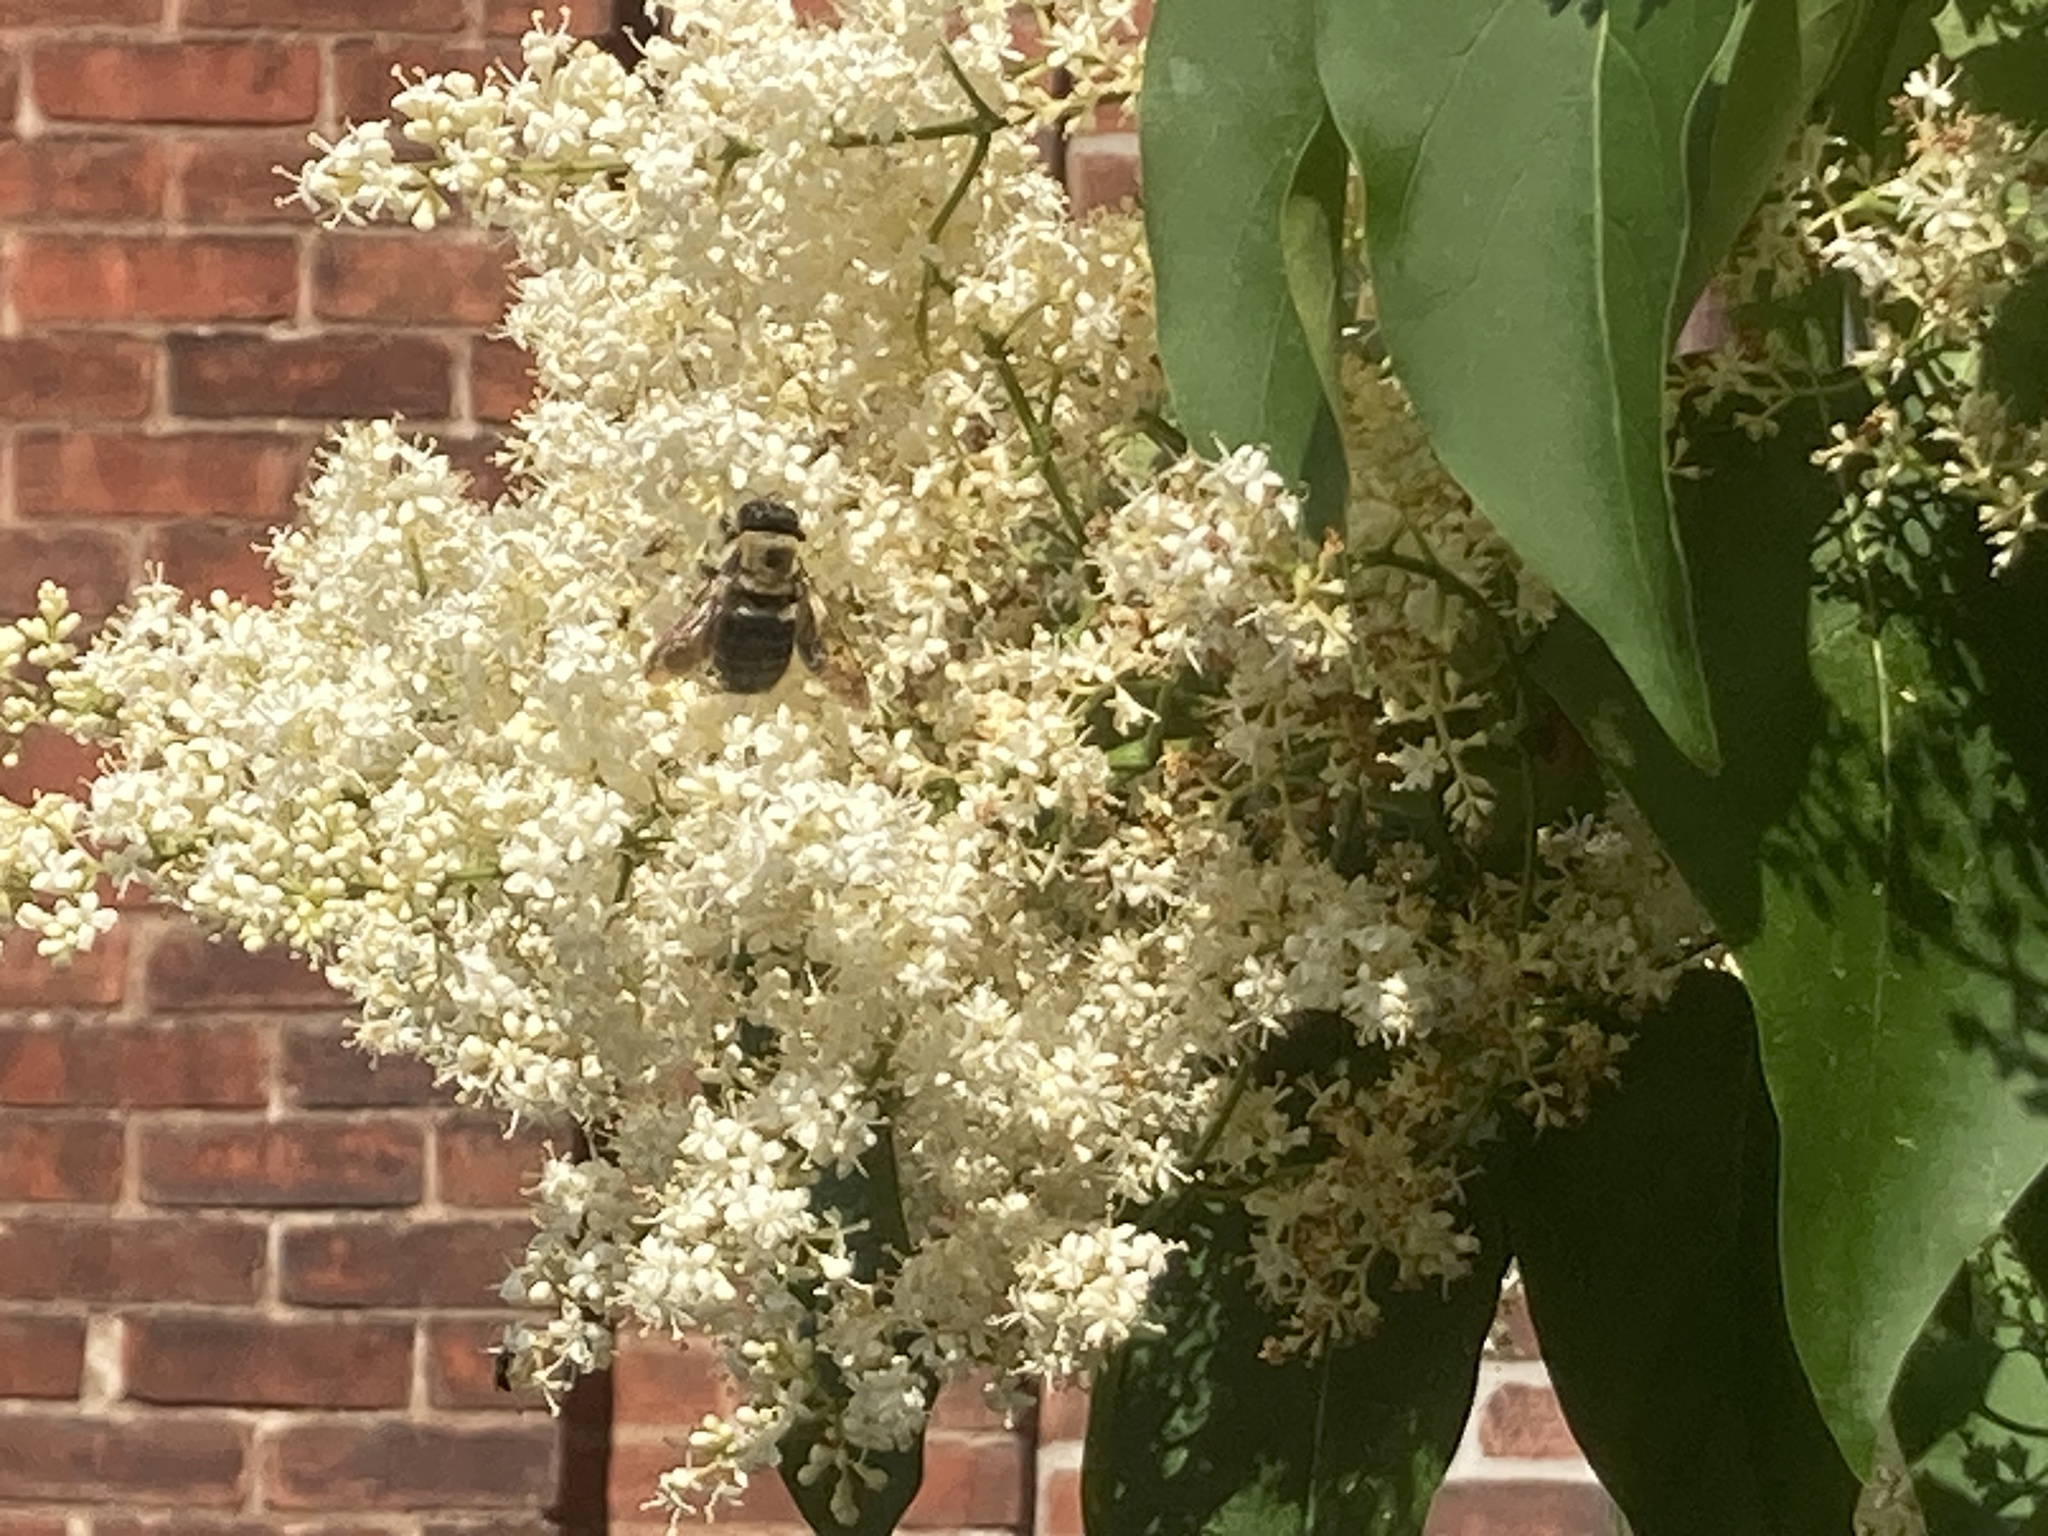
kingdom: Animalia
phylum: Arthropoda
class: Insecta
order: Hymenoptera
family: Apidae
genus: Xylocopa
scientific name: Xylocopa virginica
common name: Carpenter bee
